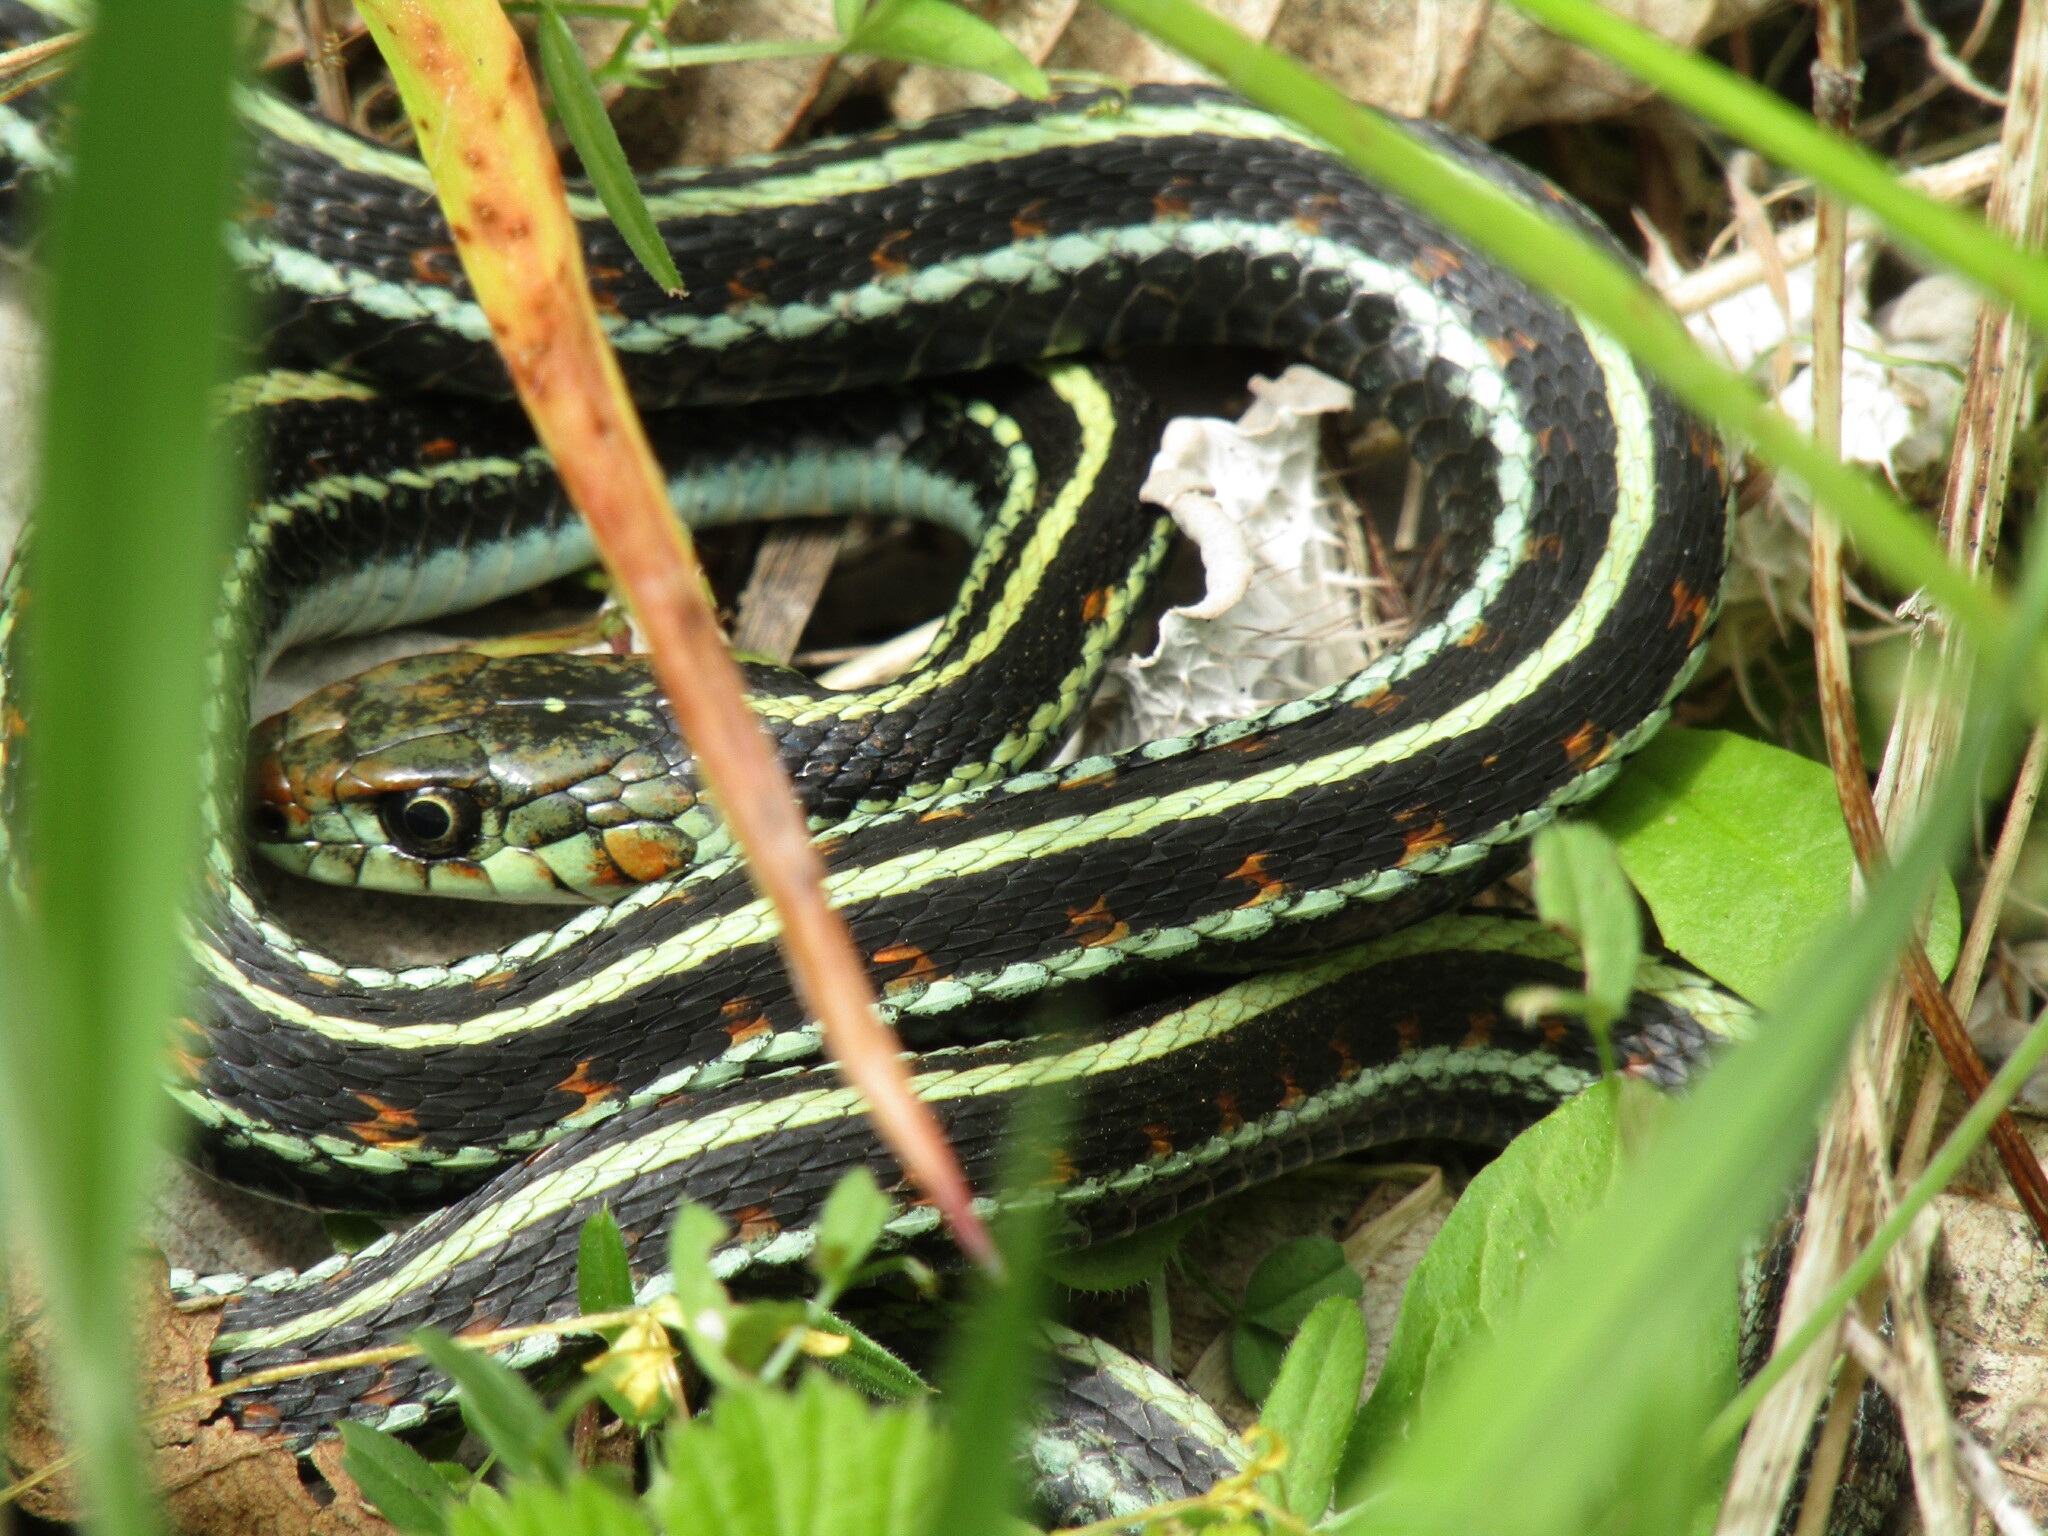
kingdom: Animalia
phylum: Chordata
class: Squamata
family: Colubridae
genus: Thamnophis
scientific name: Thamnophis sirtalis
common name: Common garter snake
